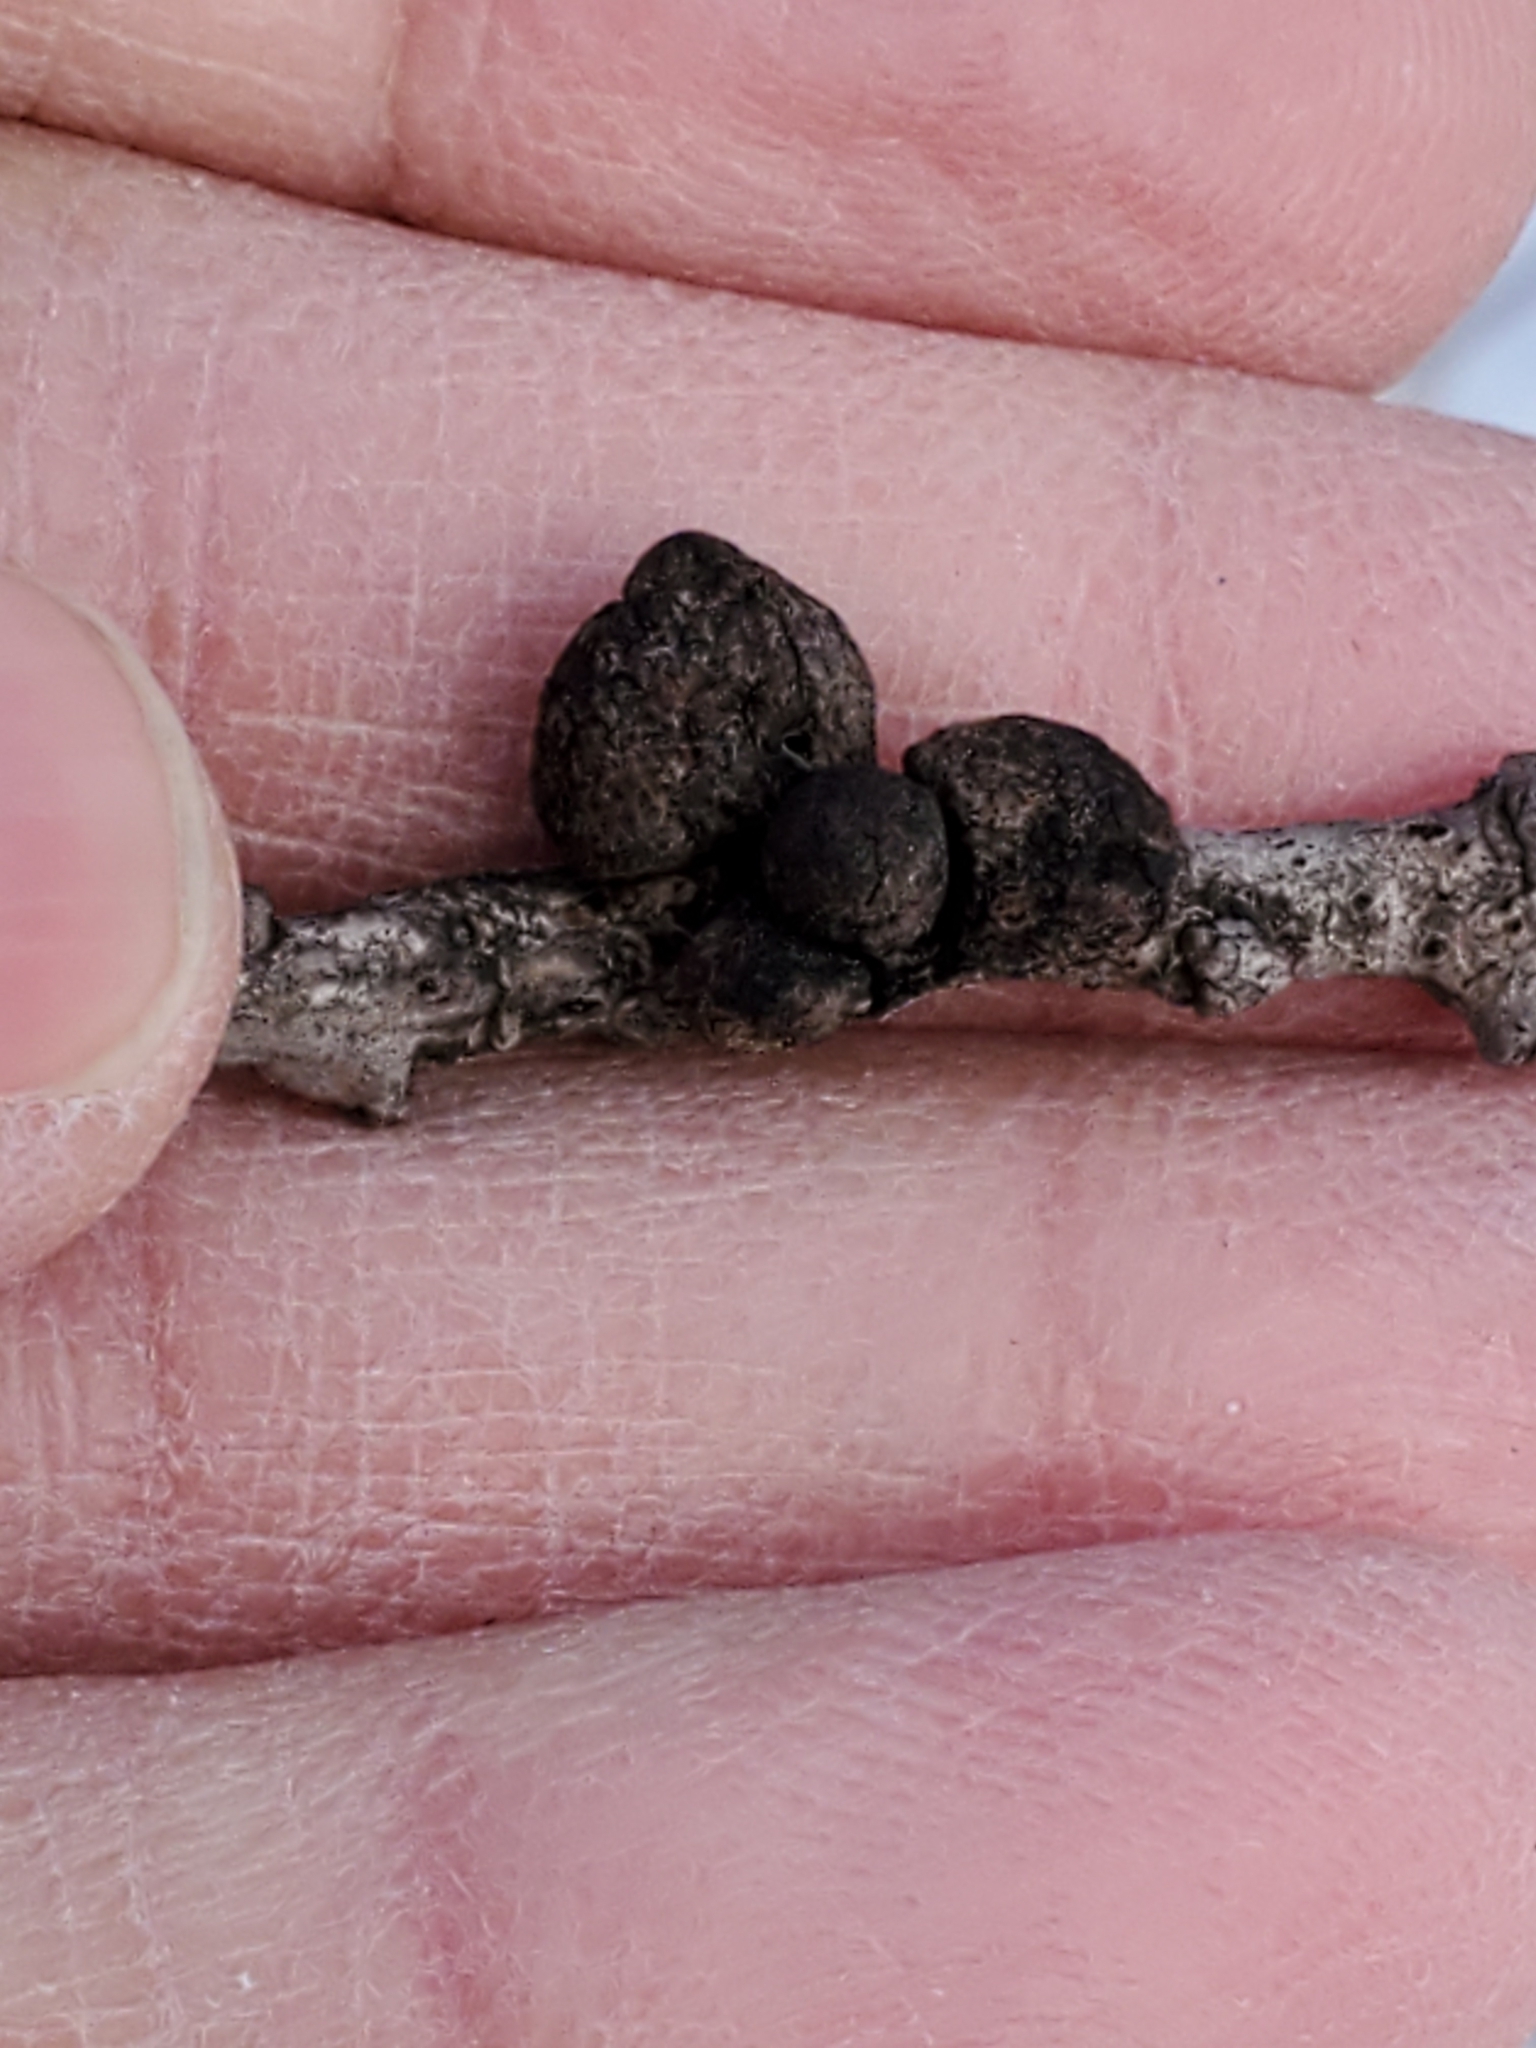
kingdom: Animalia
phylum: Arthropoda
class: Insecta
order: Hymenoptera
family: Cynipidae
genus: Disholcaspis
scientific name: Disholcaspis
